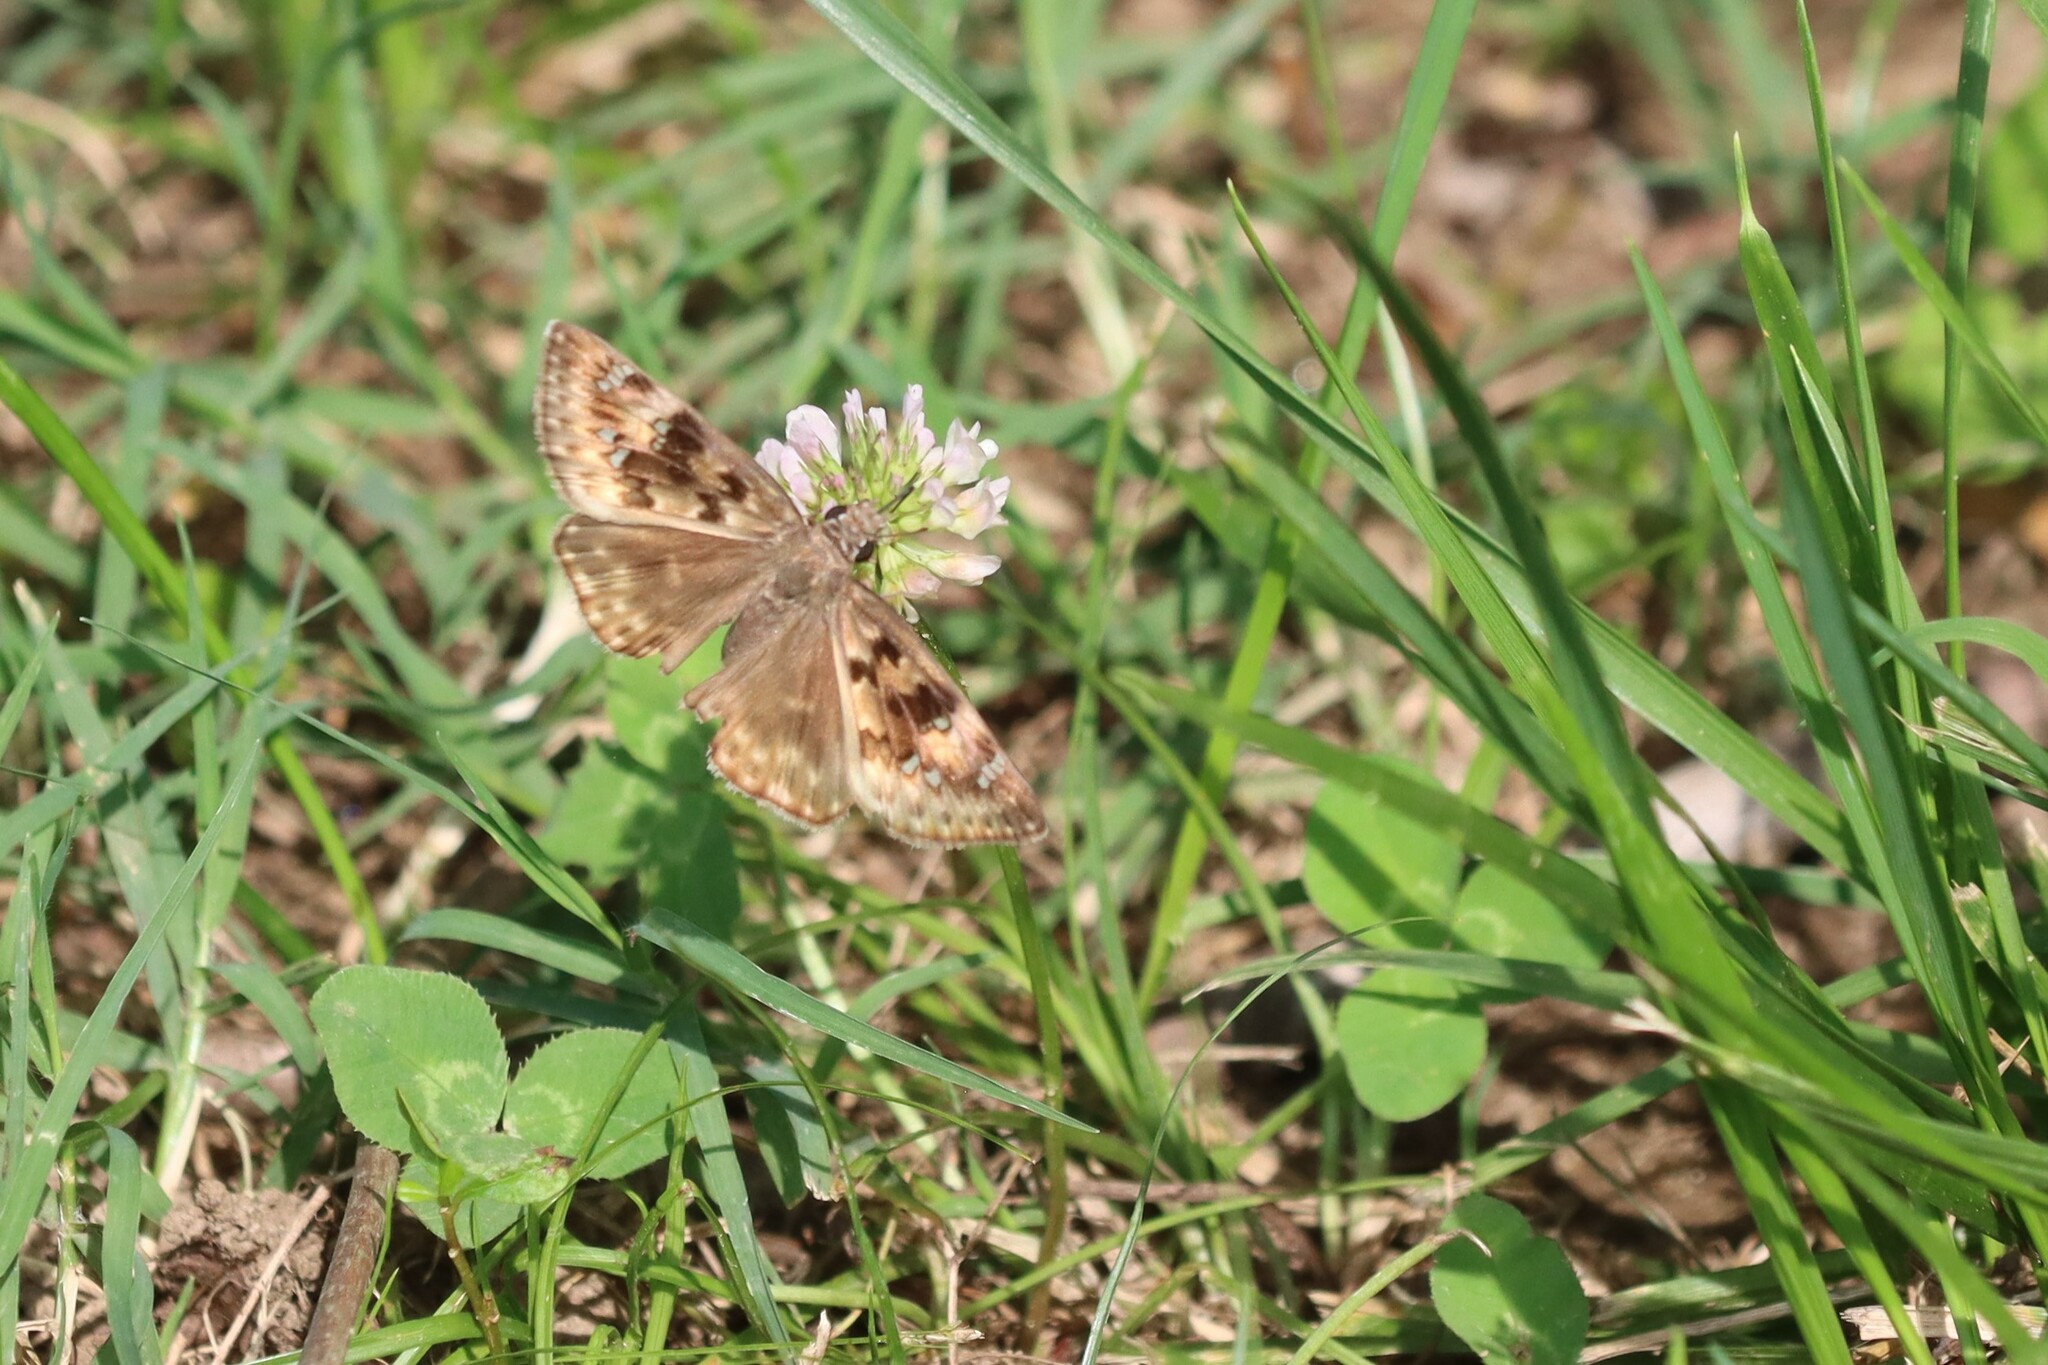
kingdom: Animalia
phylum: Arthropoda
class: Insecta
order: Lepidoptera
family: Hesperiidae
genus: Erynnis
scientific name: Erynnis horatius
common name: Horace's duskywing
